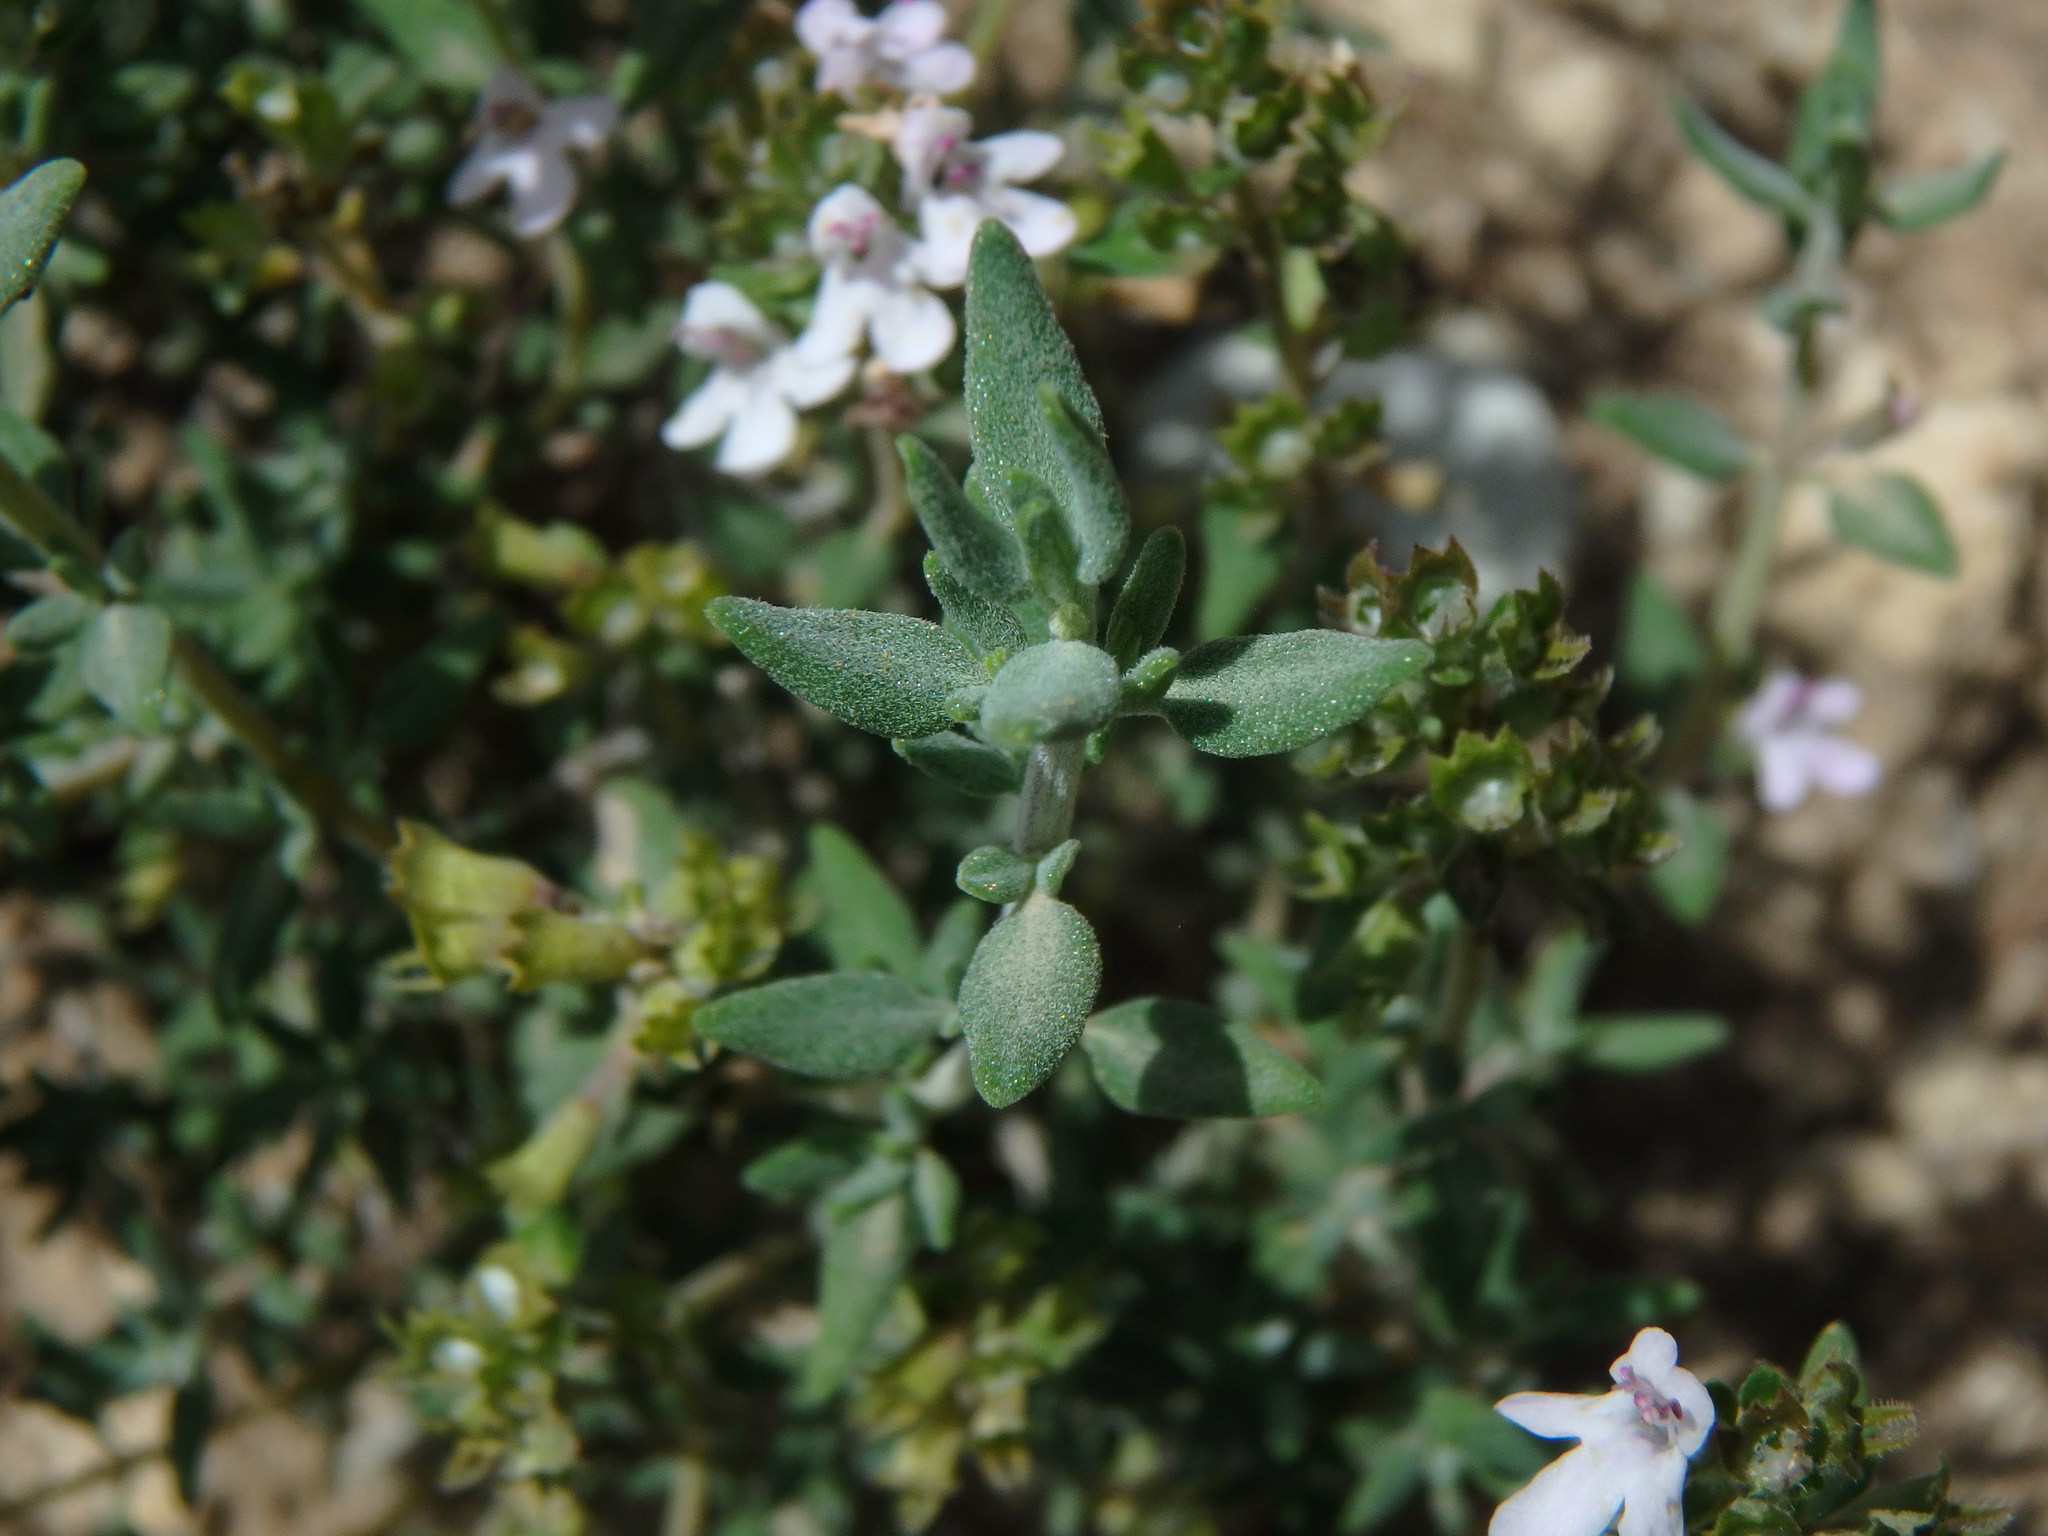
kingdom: Plantae
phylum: Tracheophyta
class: Magnoliopsida
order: Lamiales
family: Lamiaceae
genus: Thymus
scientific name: Thymus vulgaris
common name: Garden thyme
